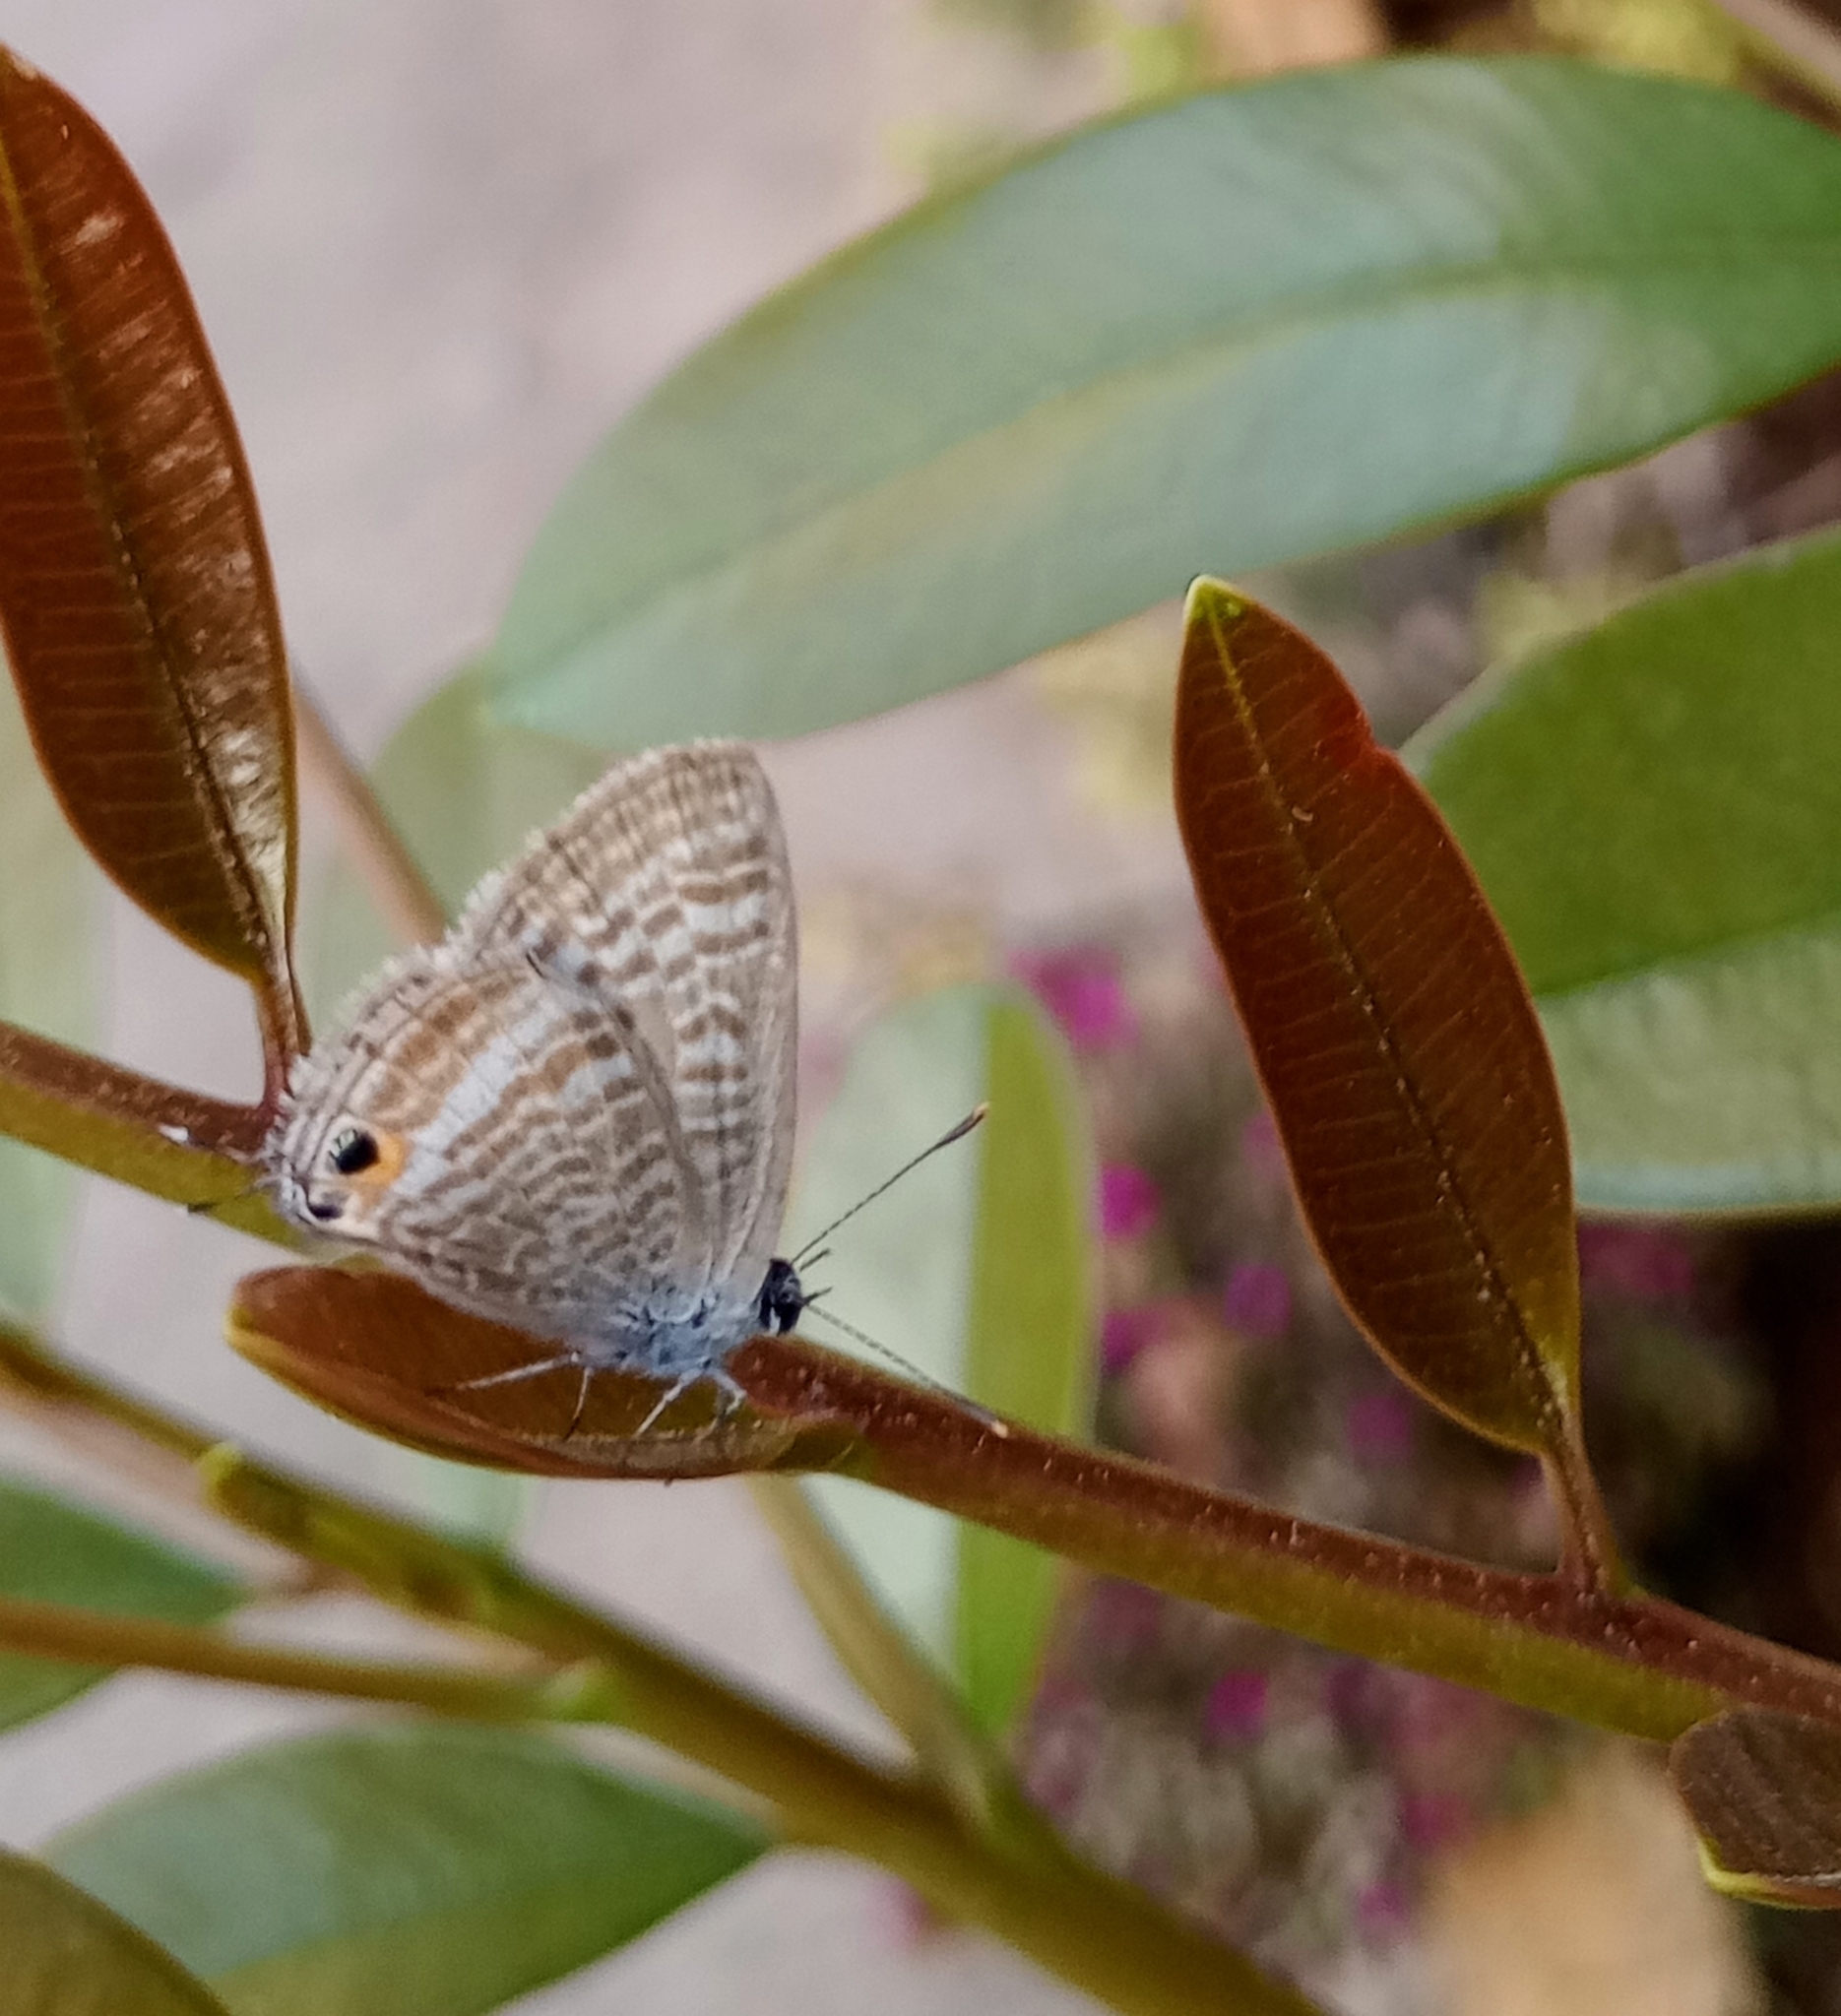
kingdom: Animalia
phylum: Arthropoda
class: Insecta
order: Lepidoptera
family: Lycaenidae
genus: Lampides
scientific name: Lampides boeticus
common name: Long-tailed blue
